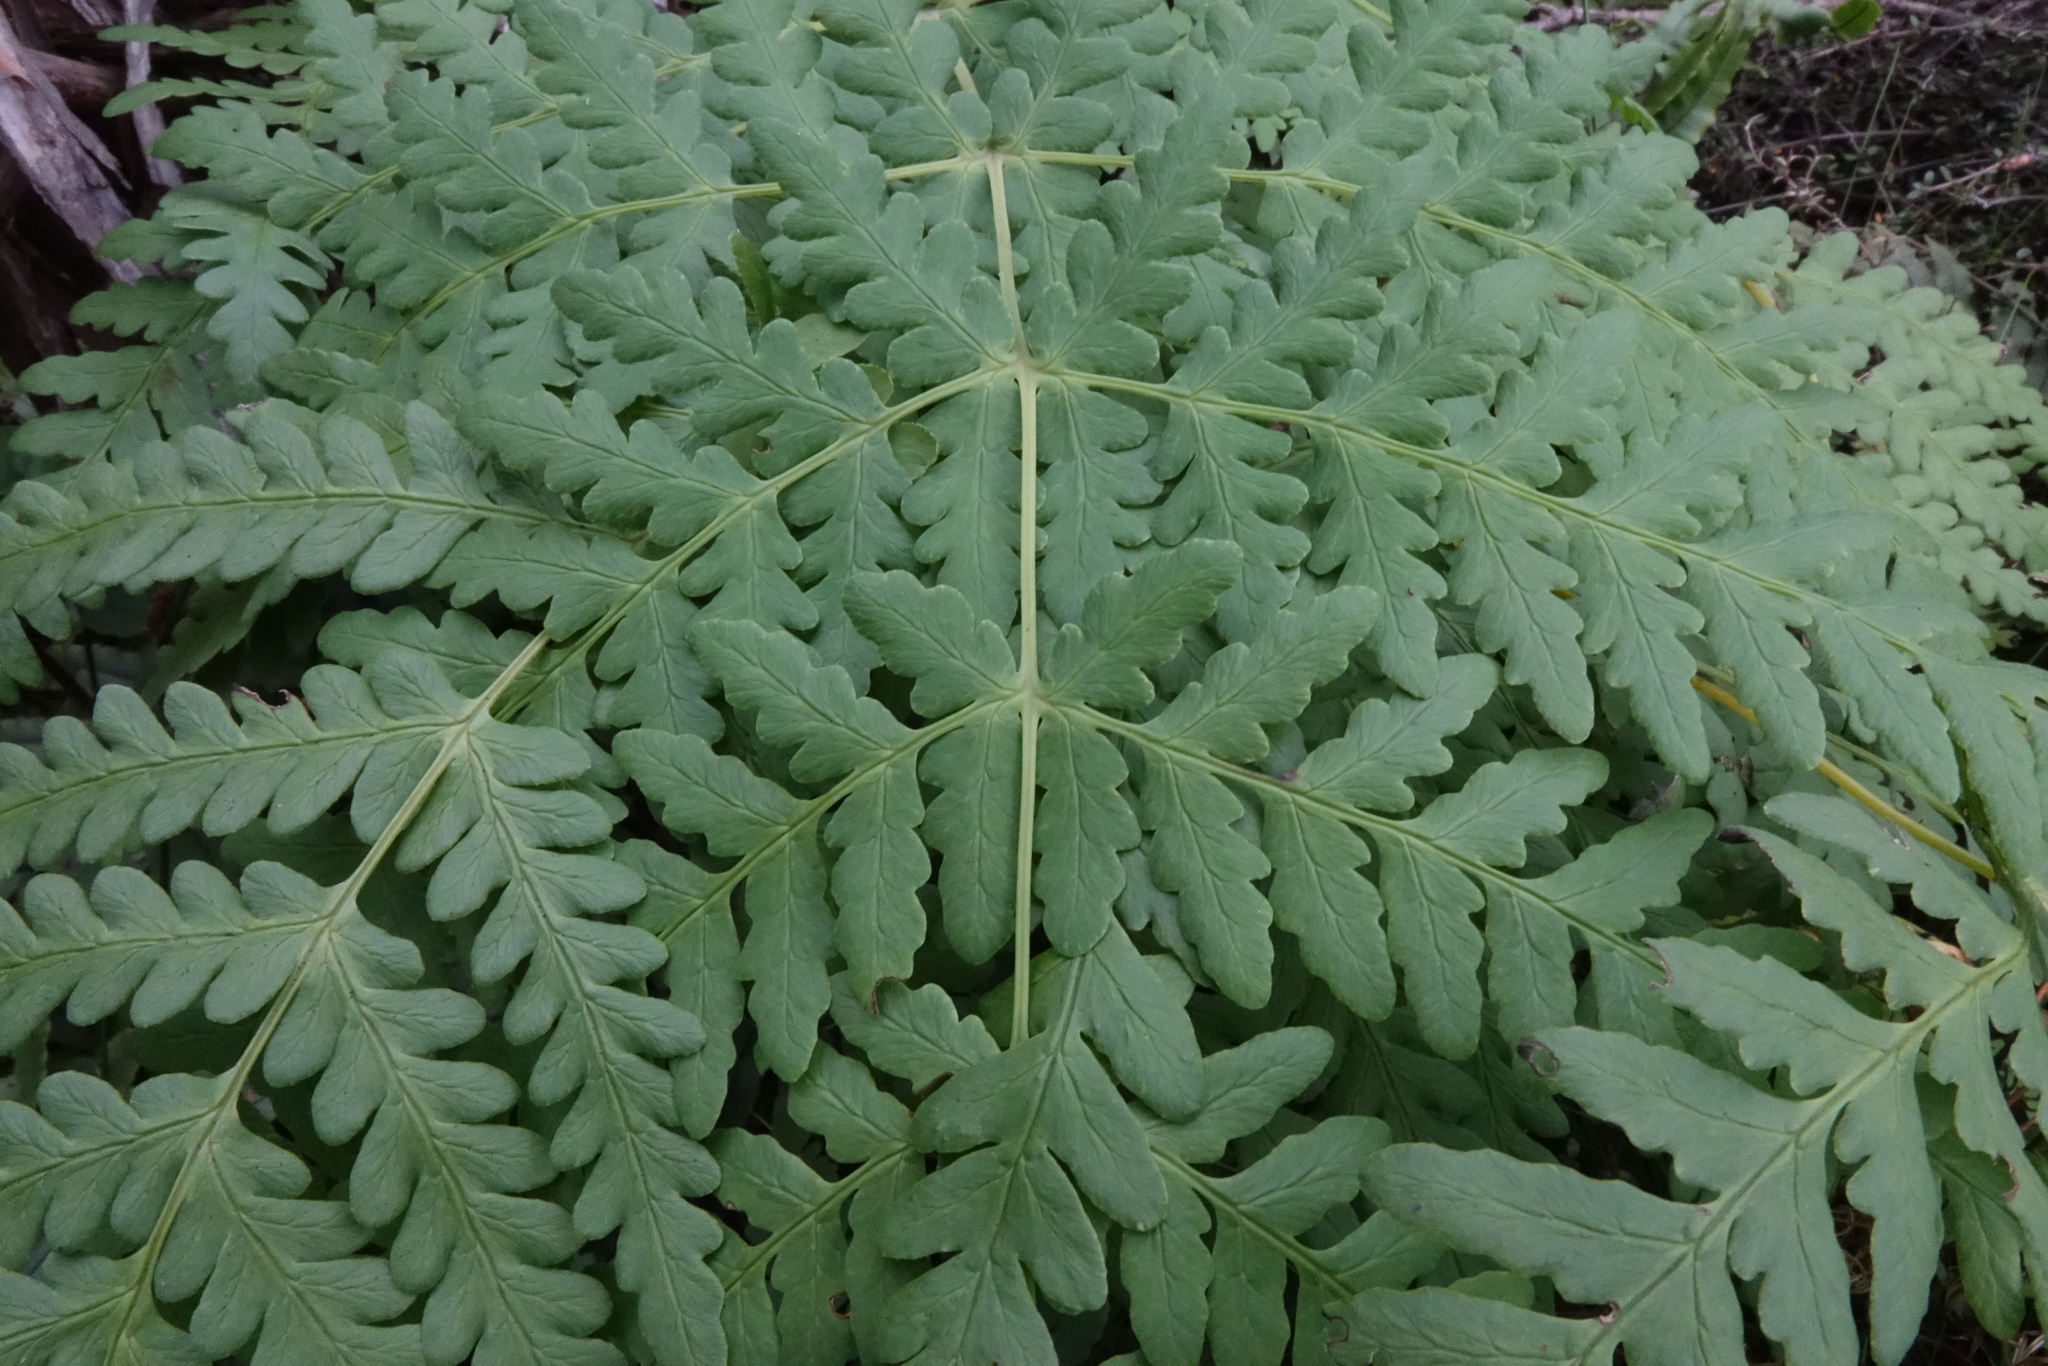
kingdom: Plantae
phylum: Tracheophyta
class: Polypodiopsida
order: Polypodiales
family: Dennstaedtiaceae
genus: Histiopteris
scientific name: Histiopteris incisa
